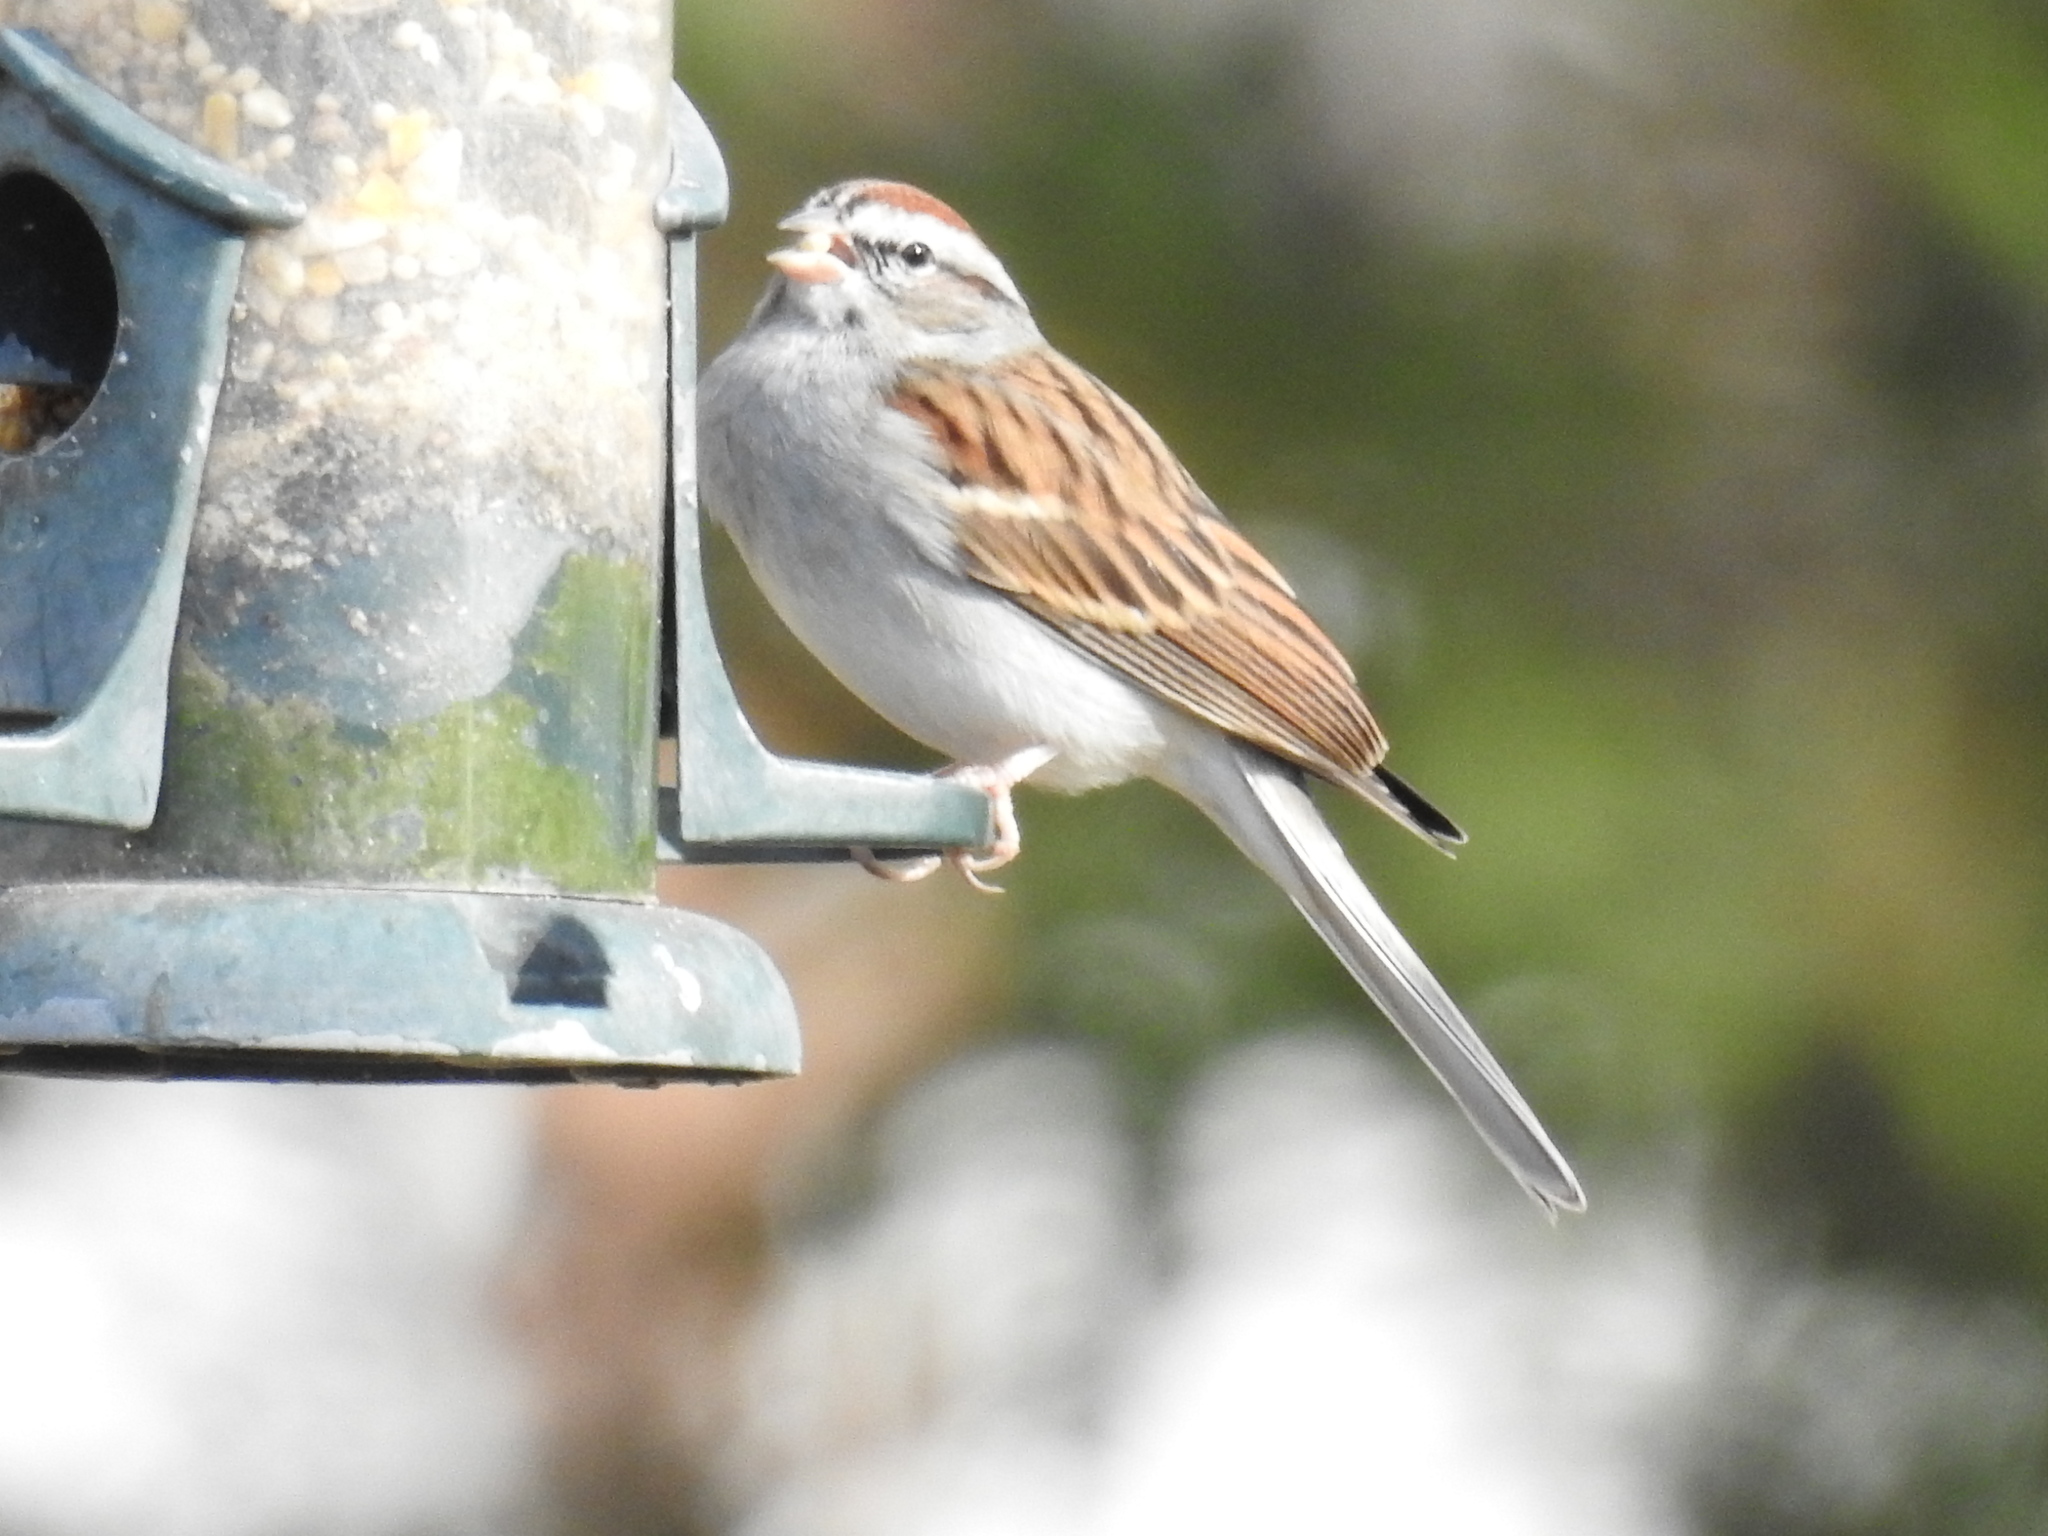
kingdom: Animalia
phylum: Chordata
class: Aves
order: Passeriformes
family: Passerellidae
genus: Spizella
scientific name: Spizella passerina
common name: Chipping sparrow
